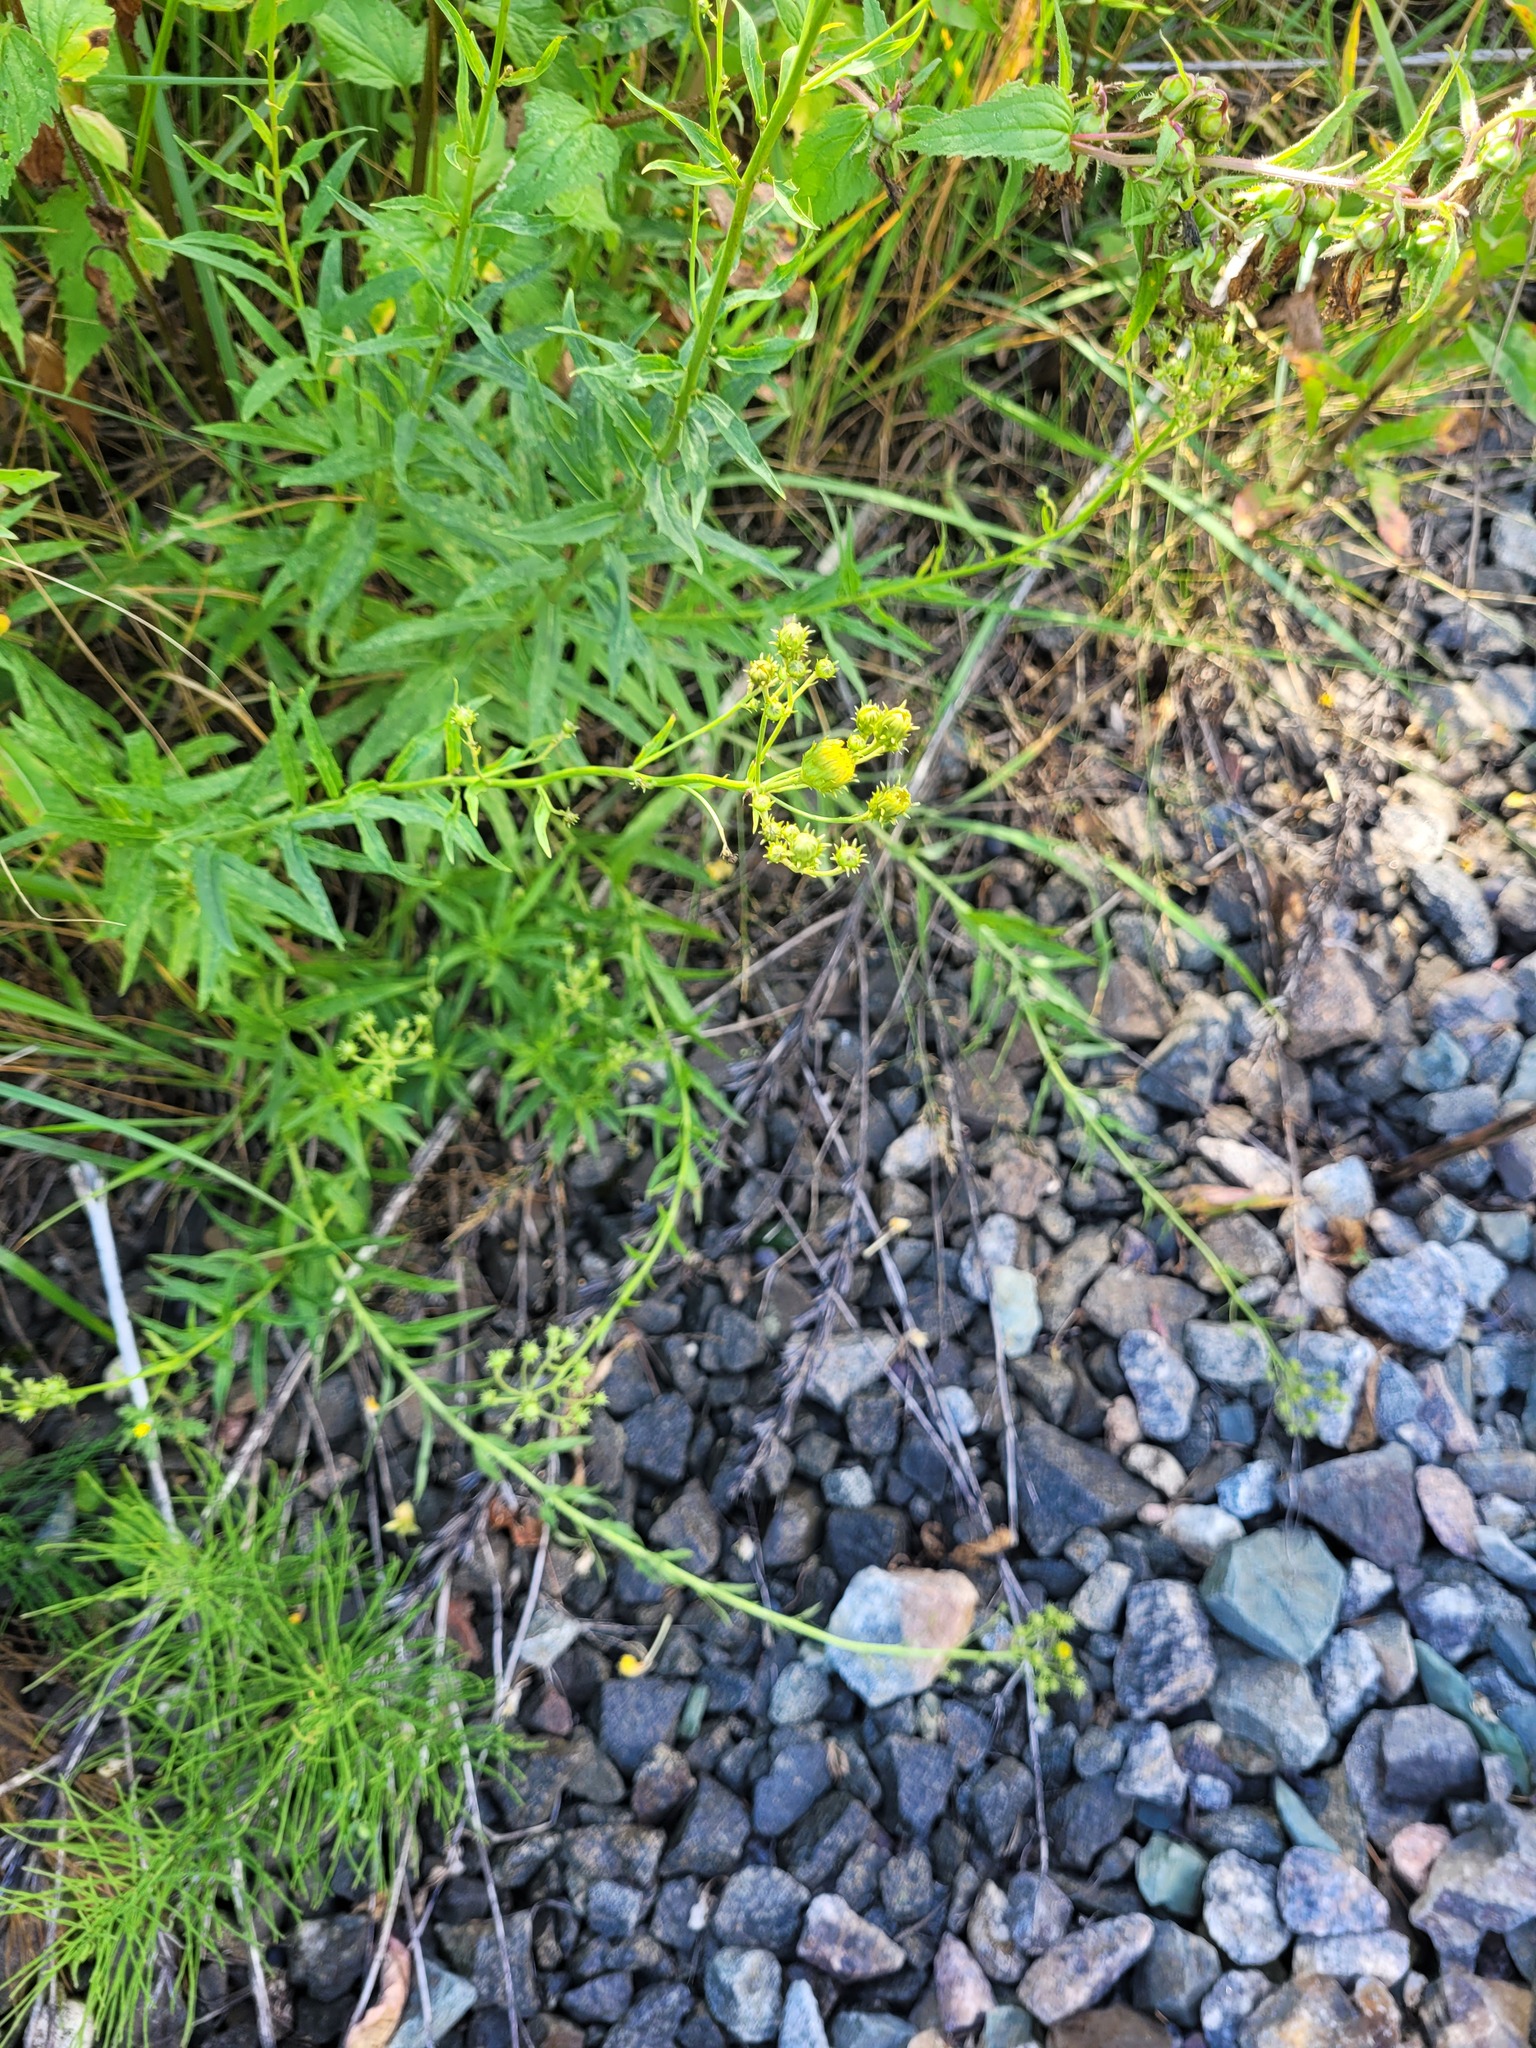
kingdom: Plantae
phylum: Tracheophyta
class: Magnoliopsida
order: Asterales
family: Asteraceae
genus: Hieracium
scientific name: Hieracium umbellatum
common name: Northern hawkweed
